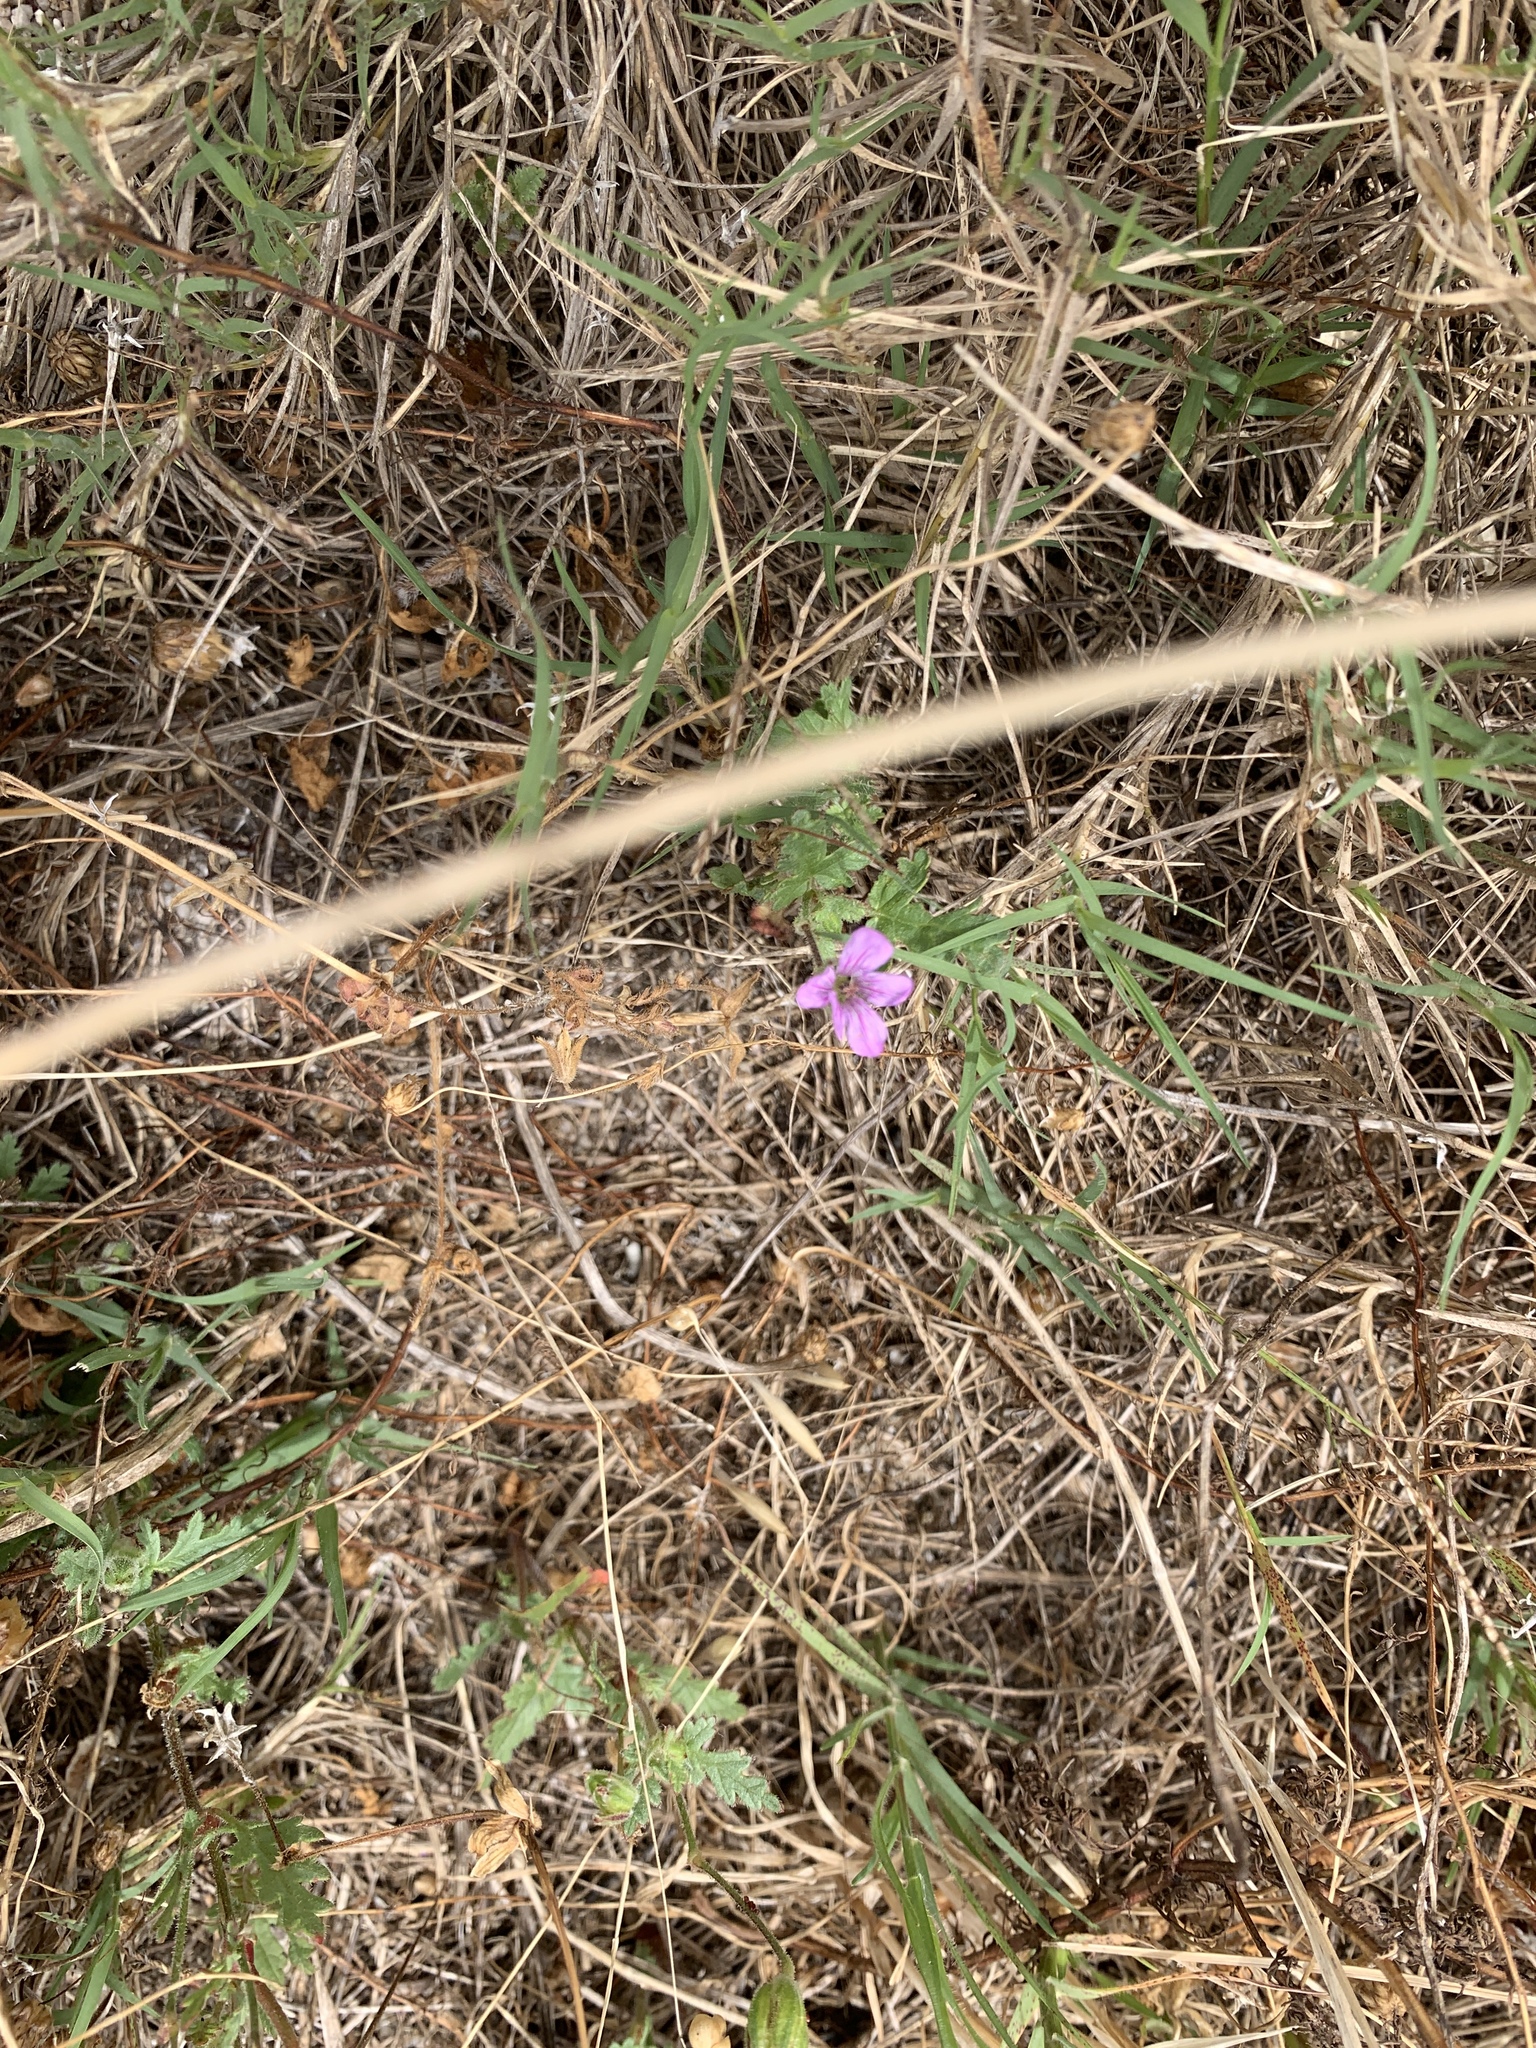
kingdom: Plantae
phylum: Tracheophyta
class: Magnoliopsida
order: Geraniales
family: Geraniaceae
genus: Erodium
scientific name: Erodium botrys
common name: Mediterranean stork's-bill
